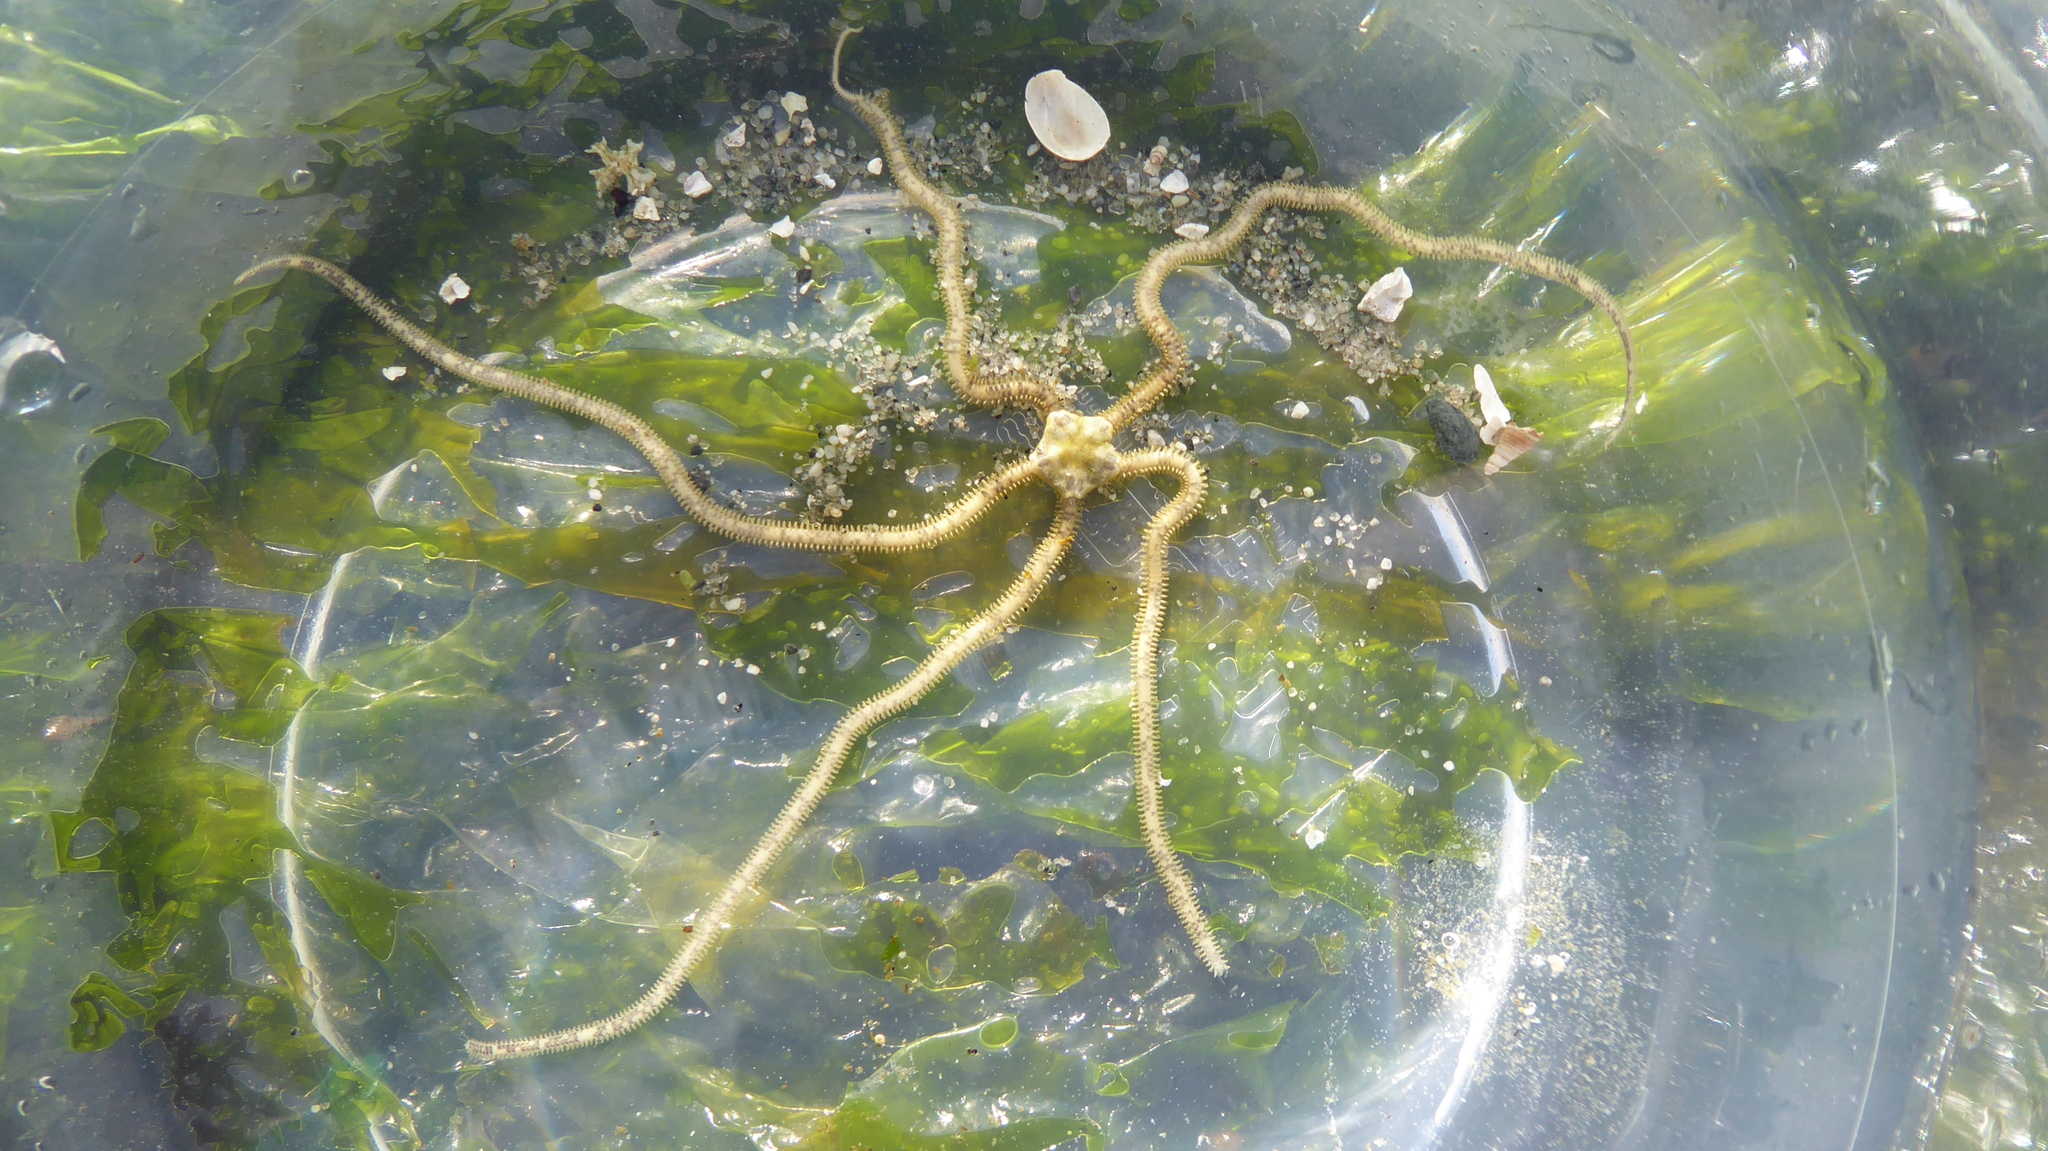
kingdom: Animalia
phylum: Echinodermata
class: Ophiuroidea
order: Amphilepidida
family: Amphiuridae
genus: Amphiodia
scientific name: Amphiodia occidentalis
